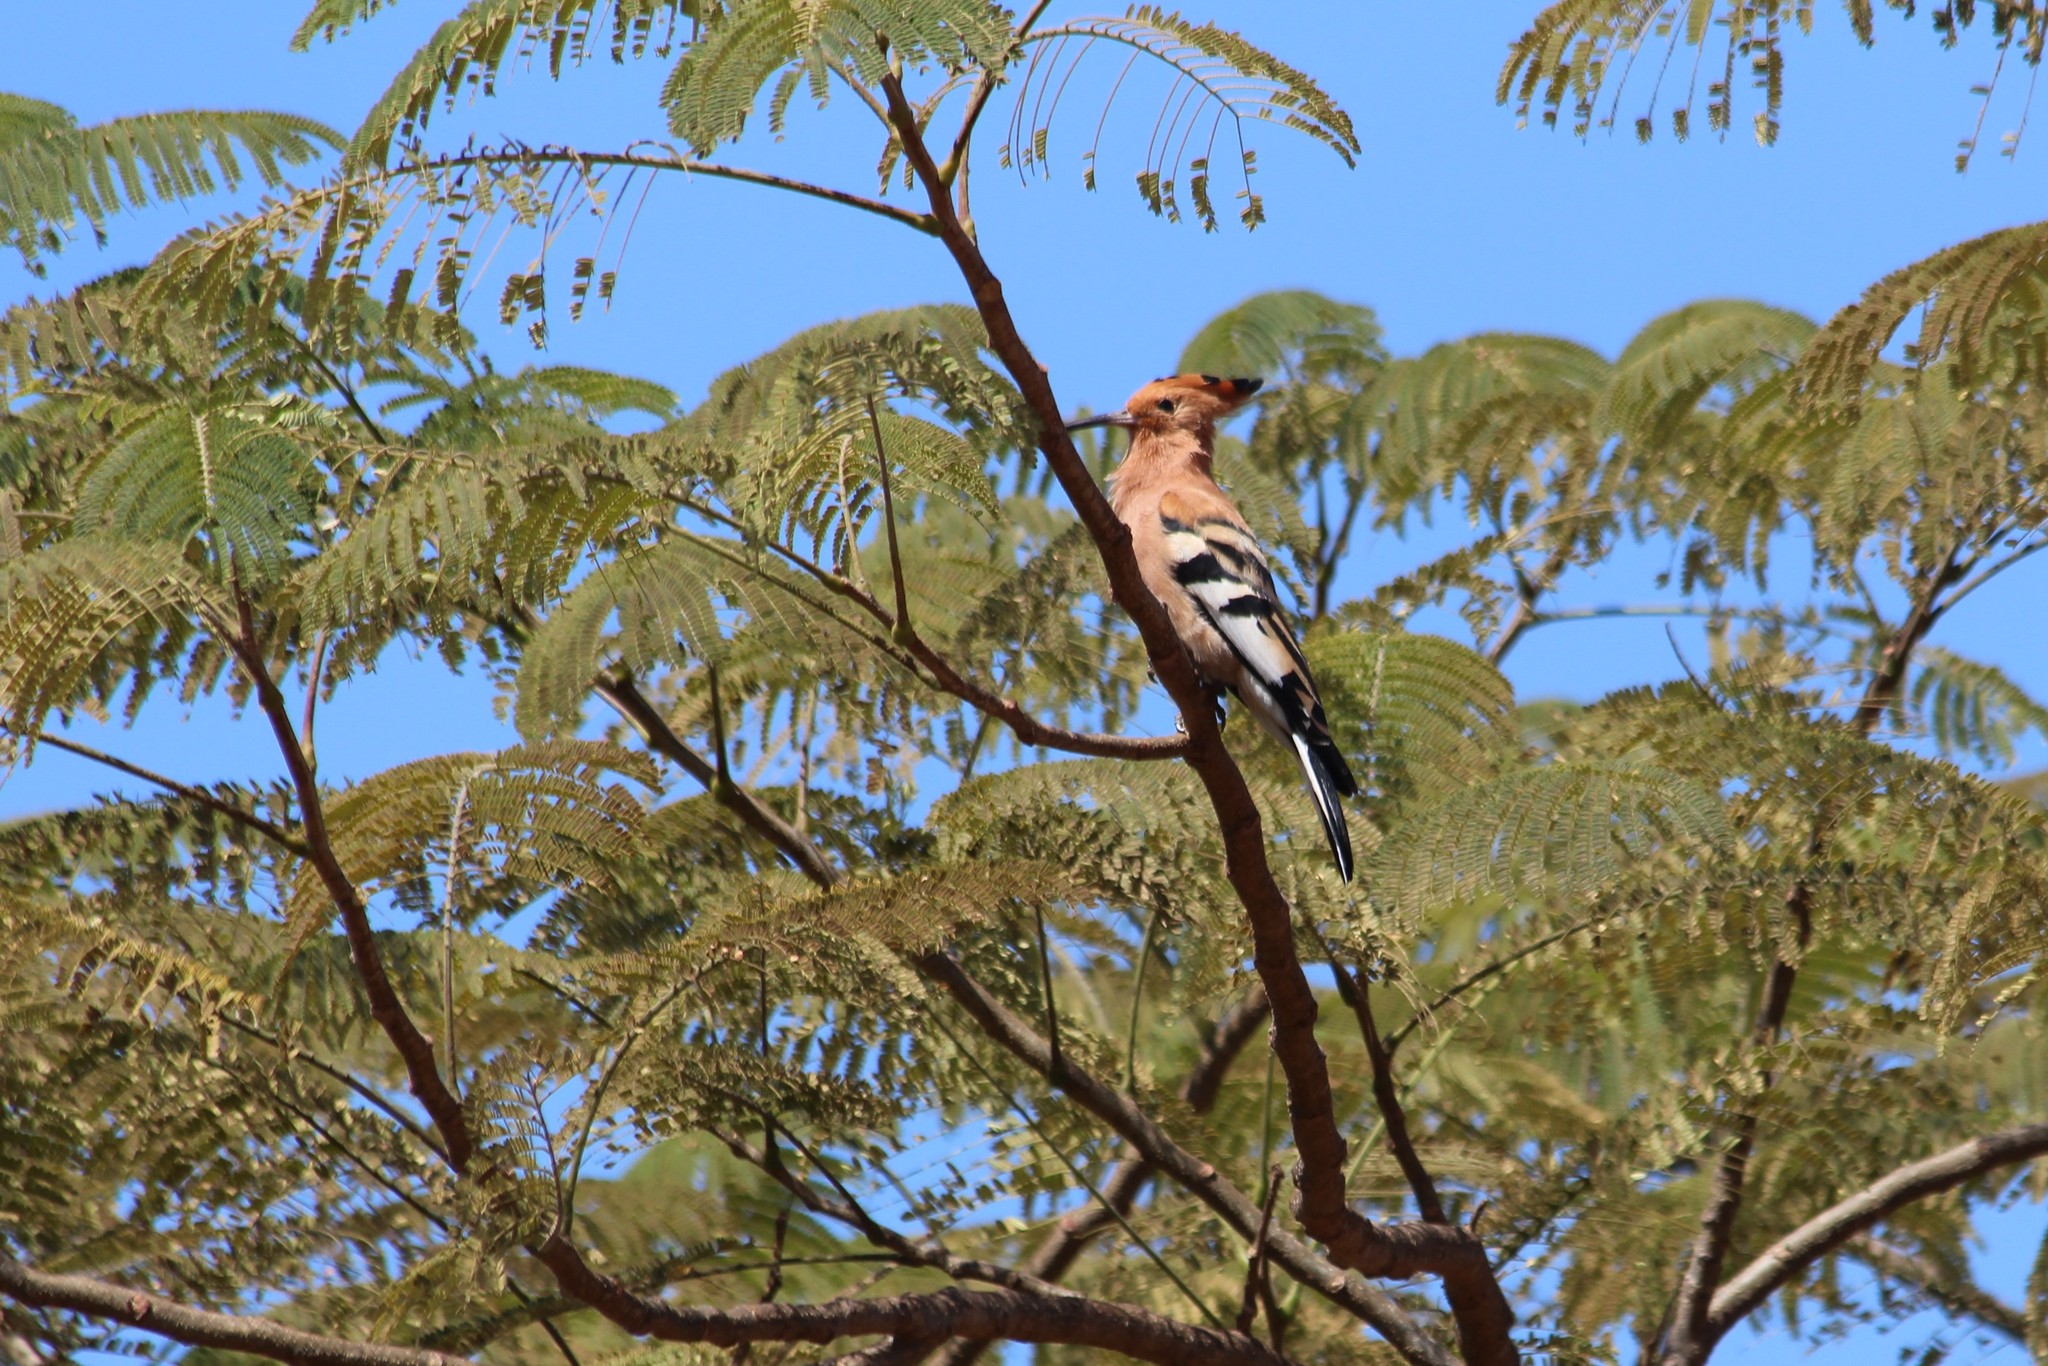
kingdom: Animalia
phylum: Chordata
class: Aves
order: Bucerotiformes
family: Upupidae
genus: Upupa
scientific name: Upupa epops
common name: Eurasian hoopoe
